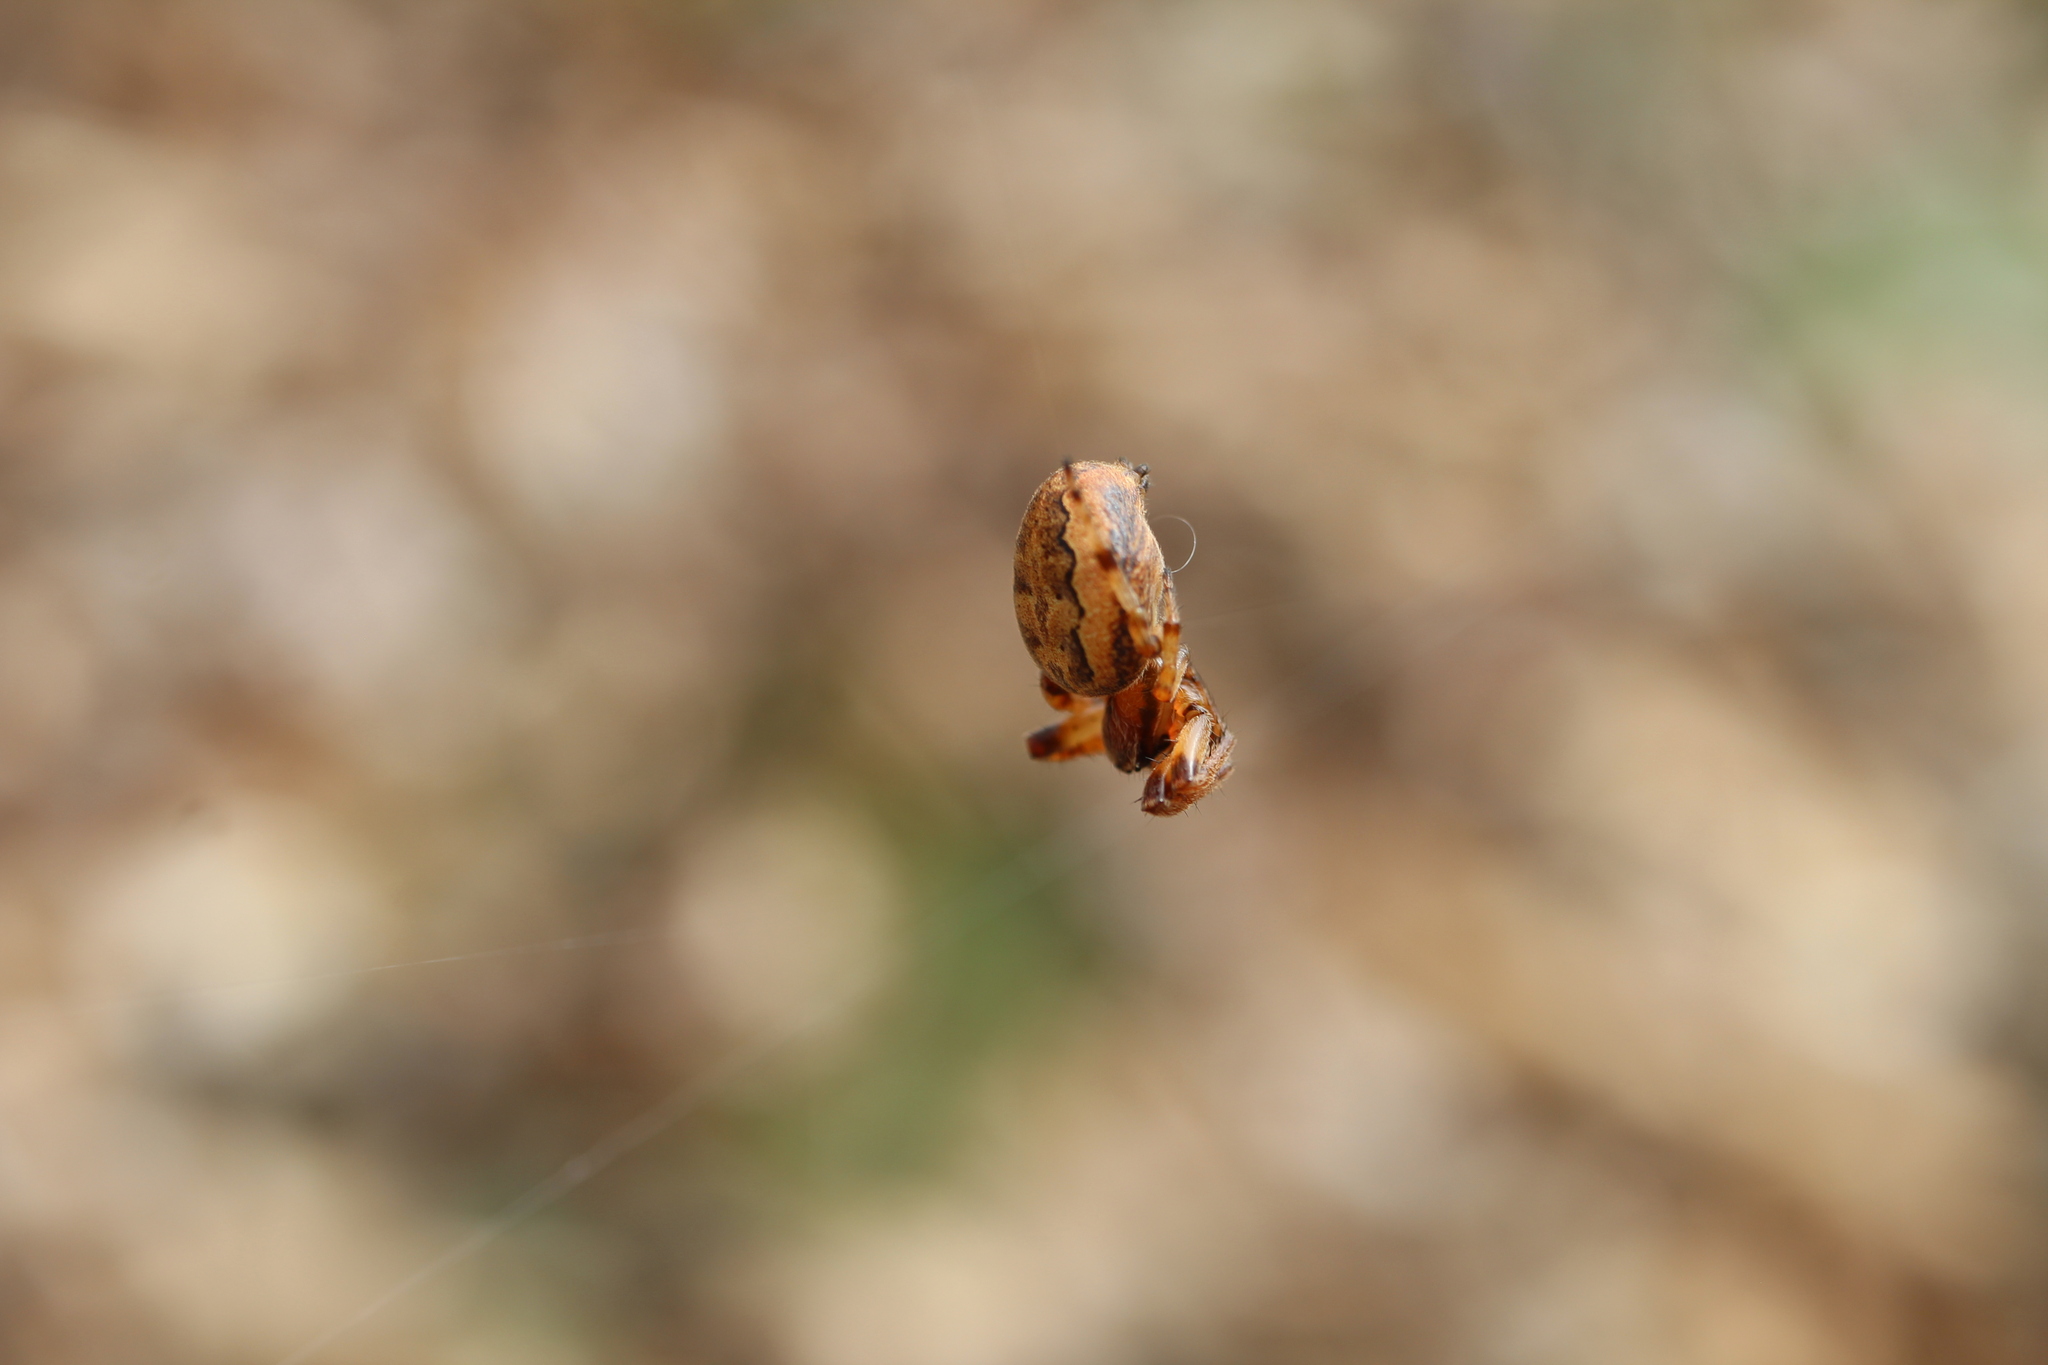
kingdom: Animalia
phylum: Arthropoda
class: Arachnida
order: Araneae
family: Araneidae
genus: Larinioides
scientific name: Larinioides cornutus
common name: Furrow orbweaver
